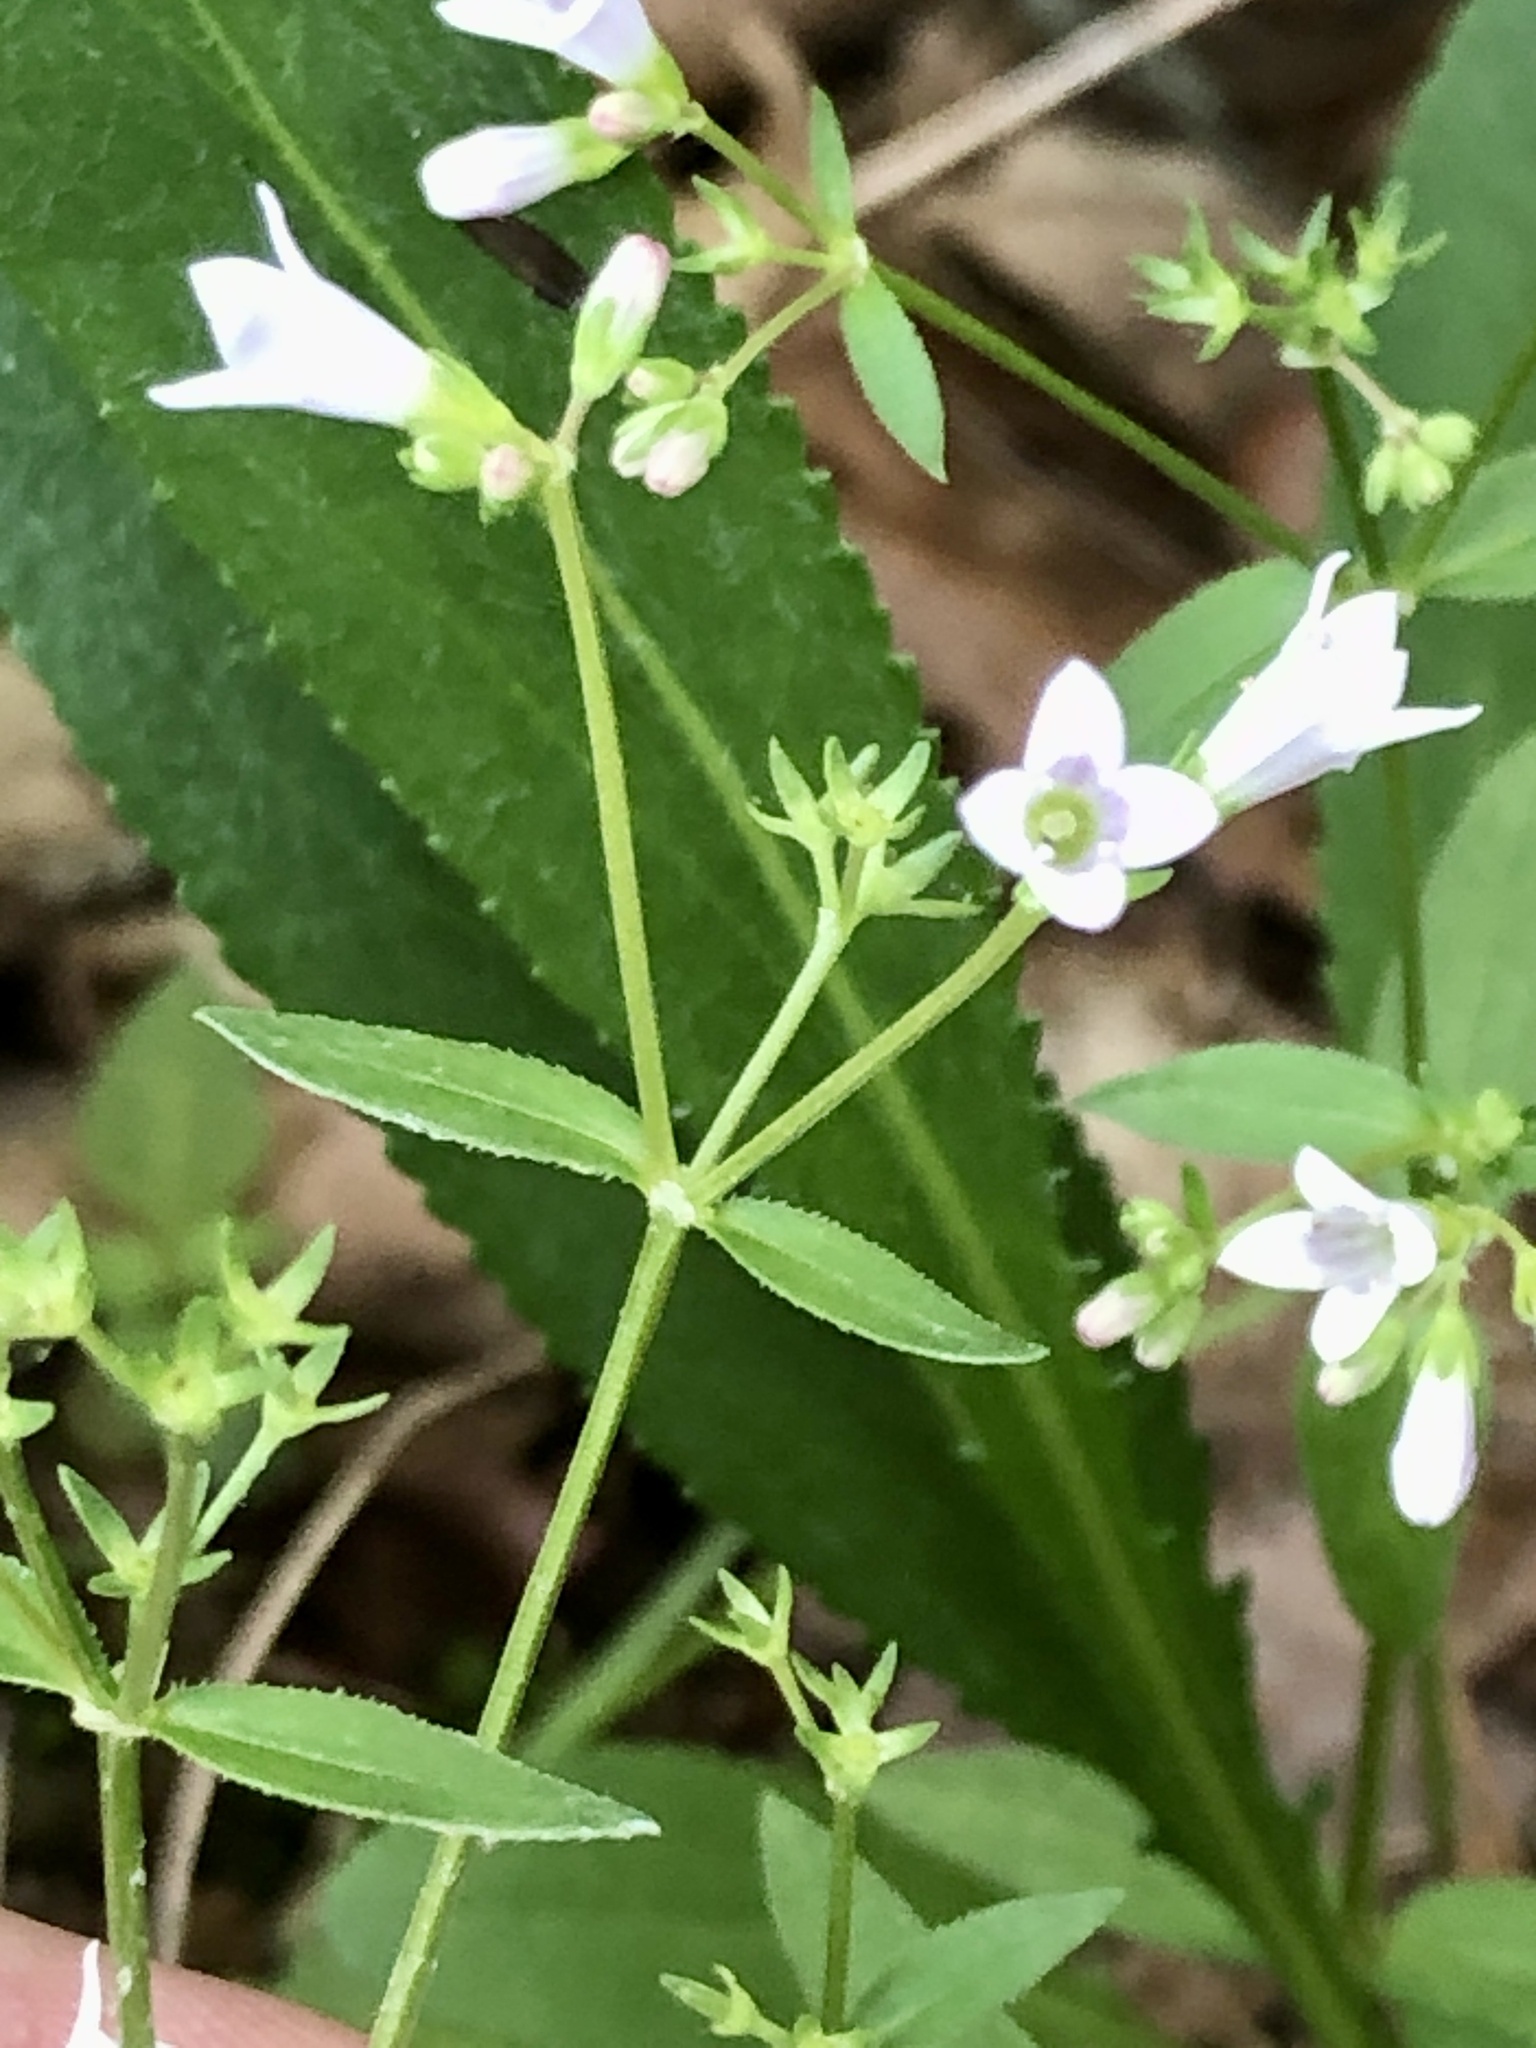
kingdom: Plantae
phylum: Tracheophyta
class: Magnoliopsida
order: Gentianales
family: Rubiaceae
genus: Houstonia
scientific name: Houstonia longifolia
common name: Long-leaved bluets
